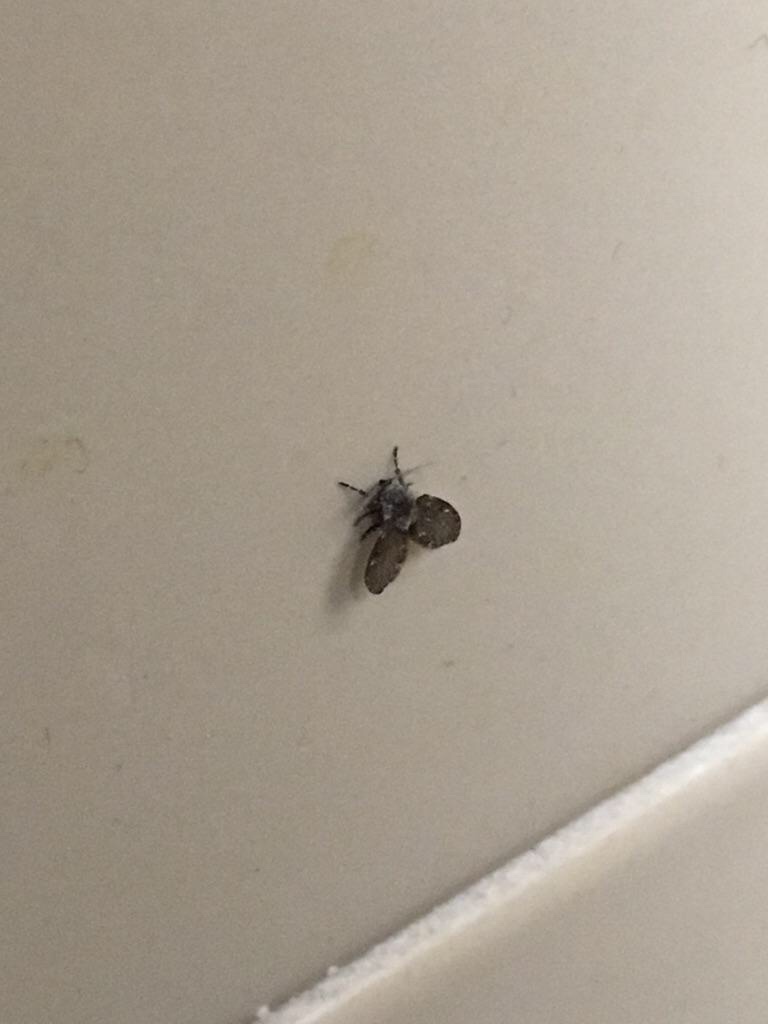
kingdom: Animalia
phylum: Arthropoda
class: Insecta
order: Diptera
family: Psychodidae
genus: Clogmia
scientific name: Clogmia albipunctatus
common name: White-spotted moth fly
